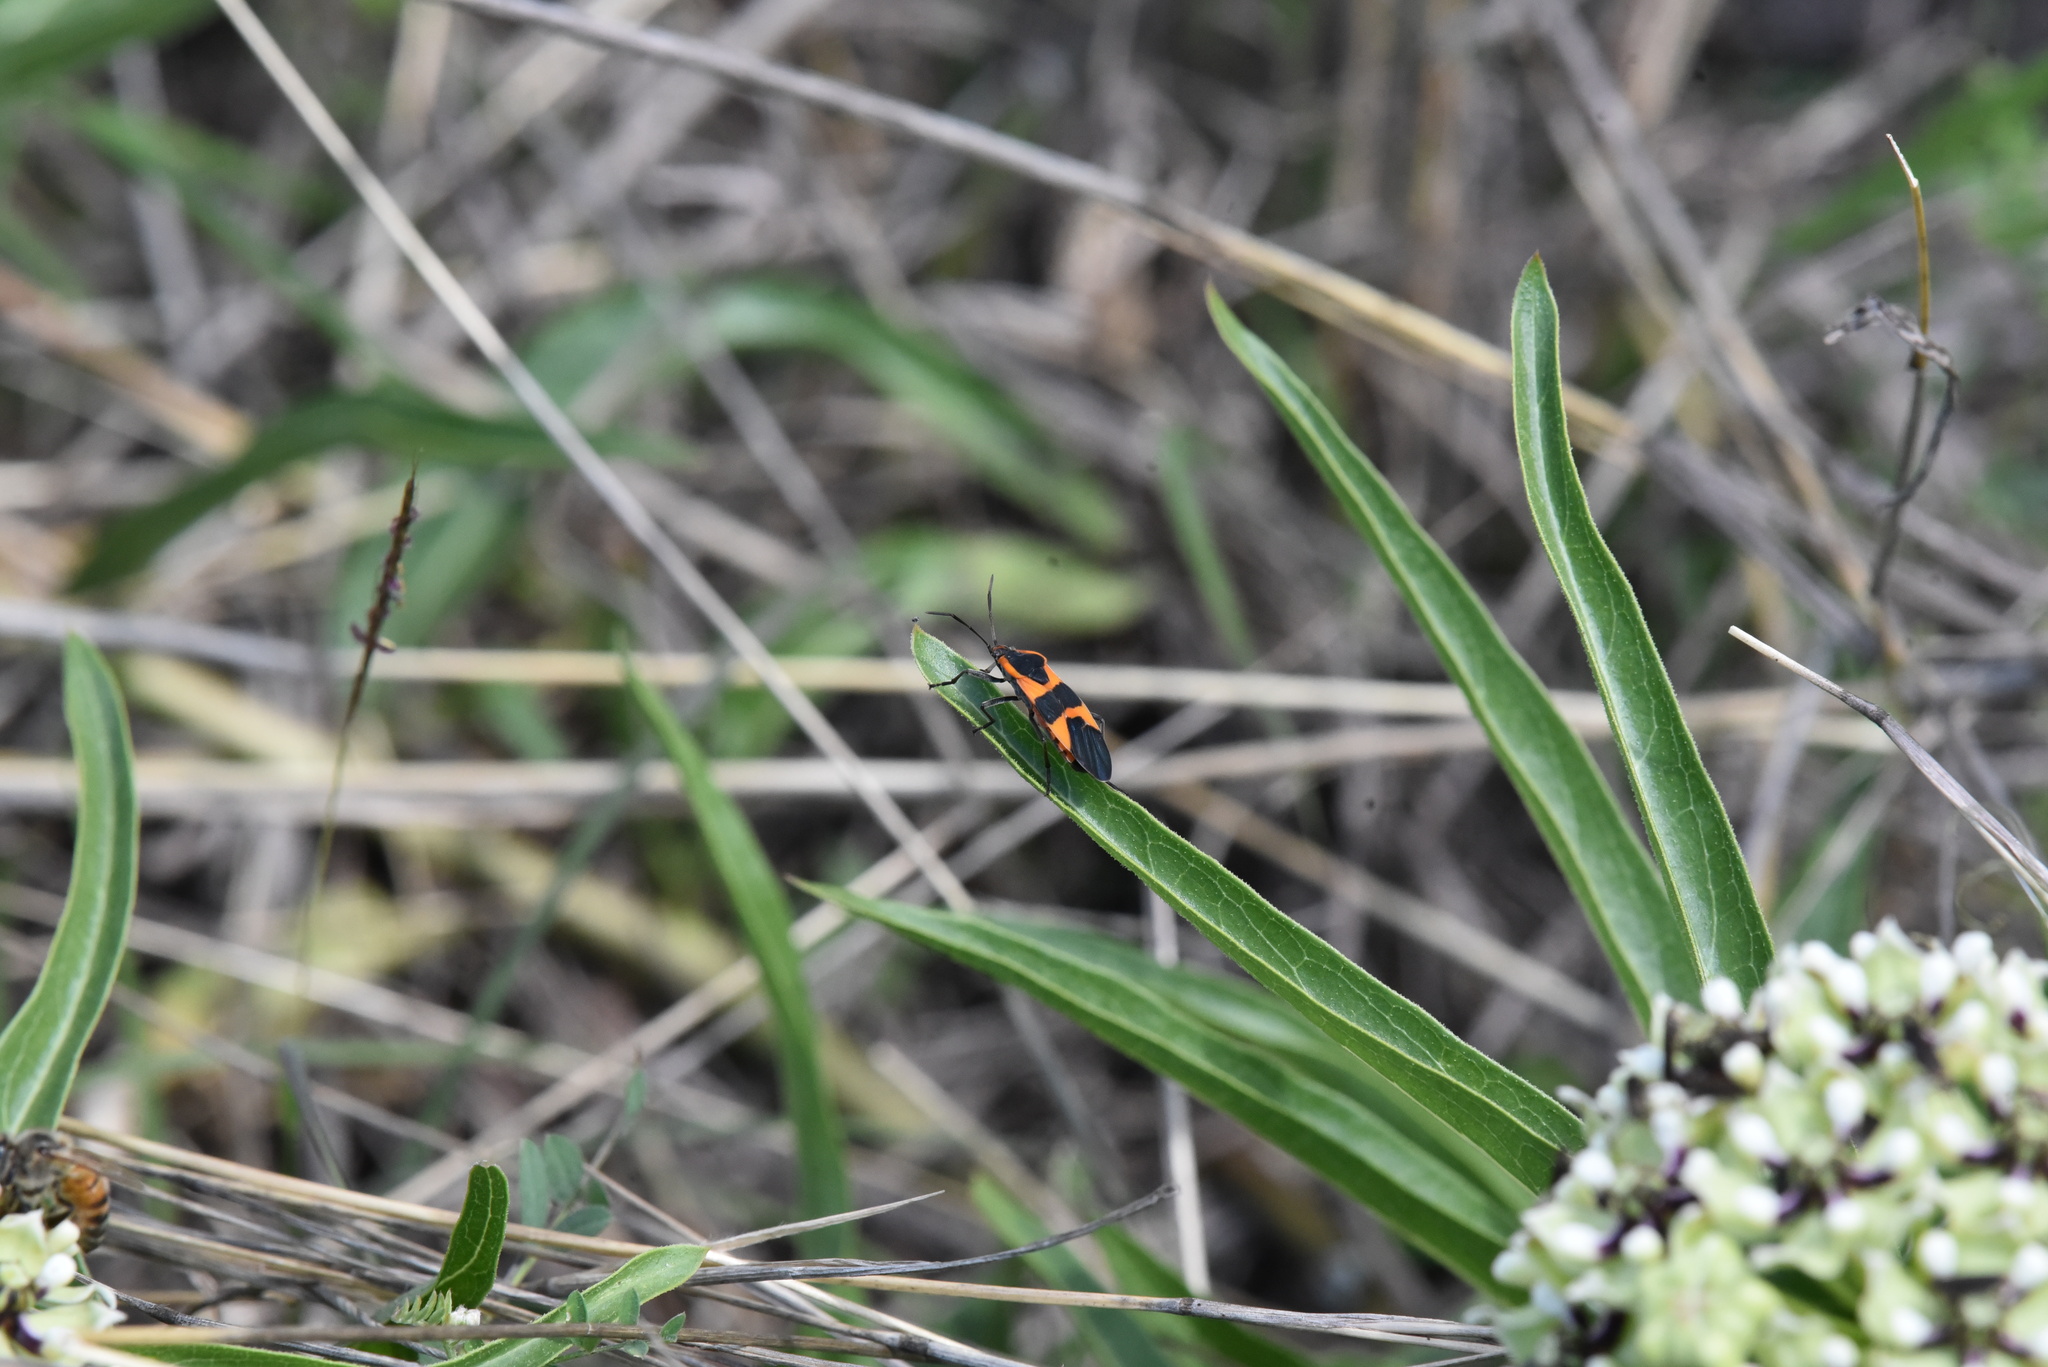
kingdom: Animalia
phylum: Arthropoda
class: Insecta
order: Hemiptera
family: Lygaeidae
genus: Oncopeltus
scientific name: Oncopeltus fasciatus
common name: Large milkweed bug
